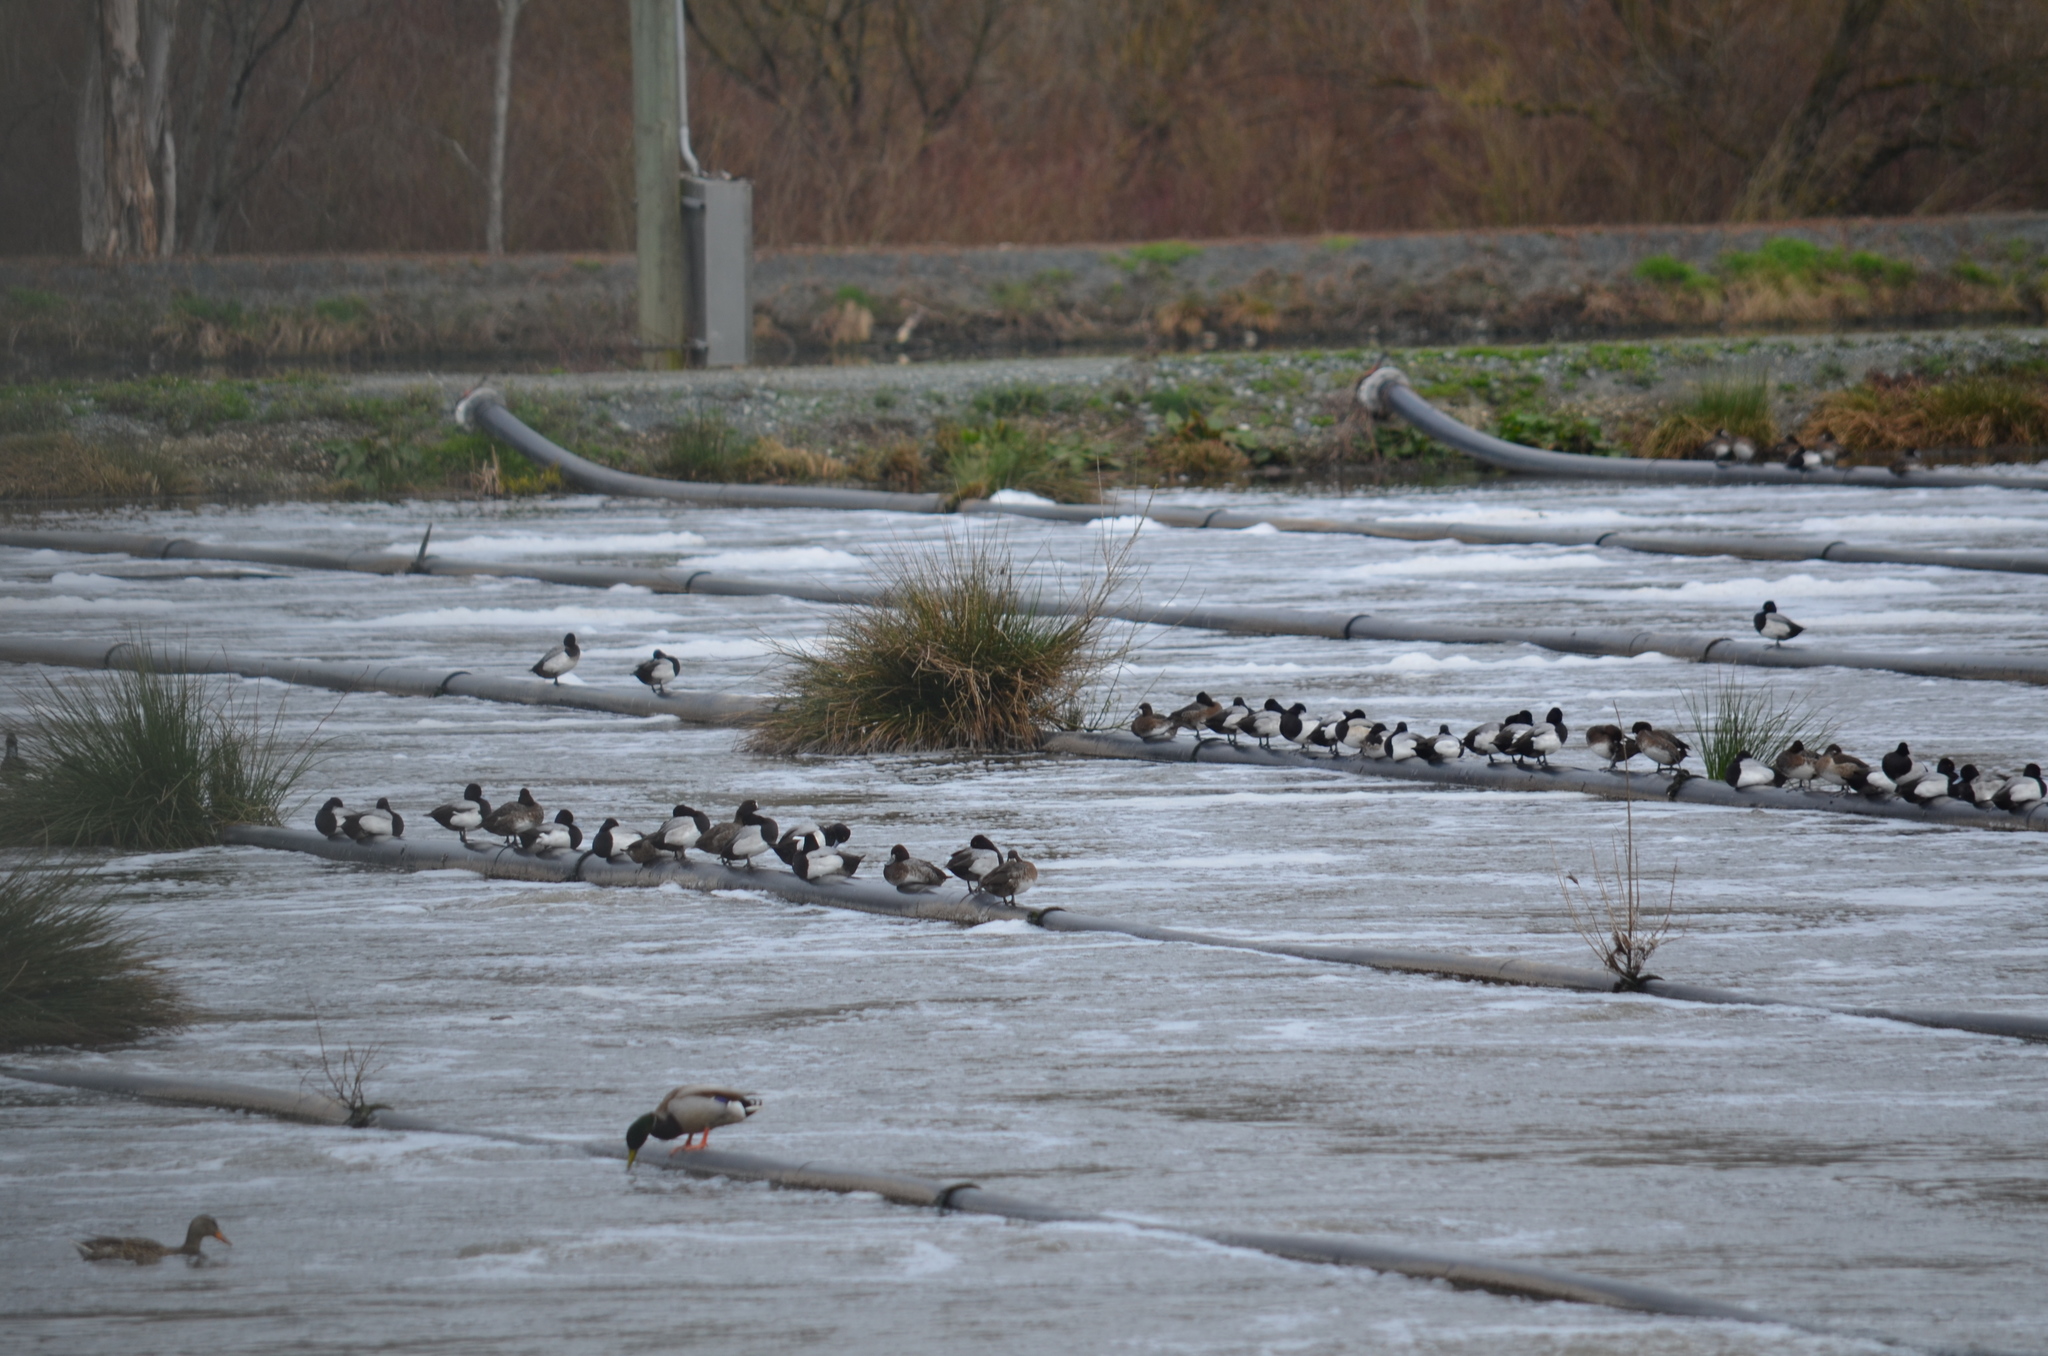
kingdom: Animalia
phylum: Chordata
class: Aves
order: Anseriformes
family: Anatidae
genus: Aythya
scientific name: Aythya affinis
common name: Lesser scaup
